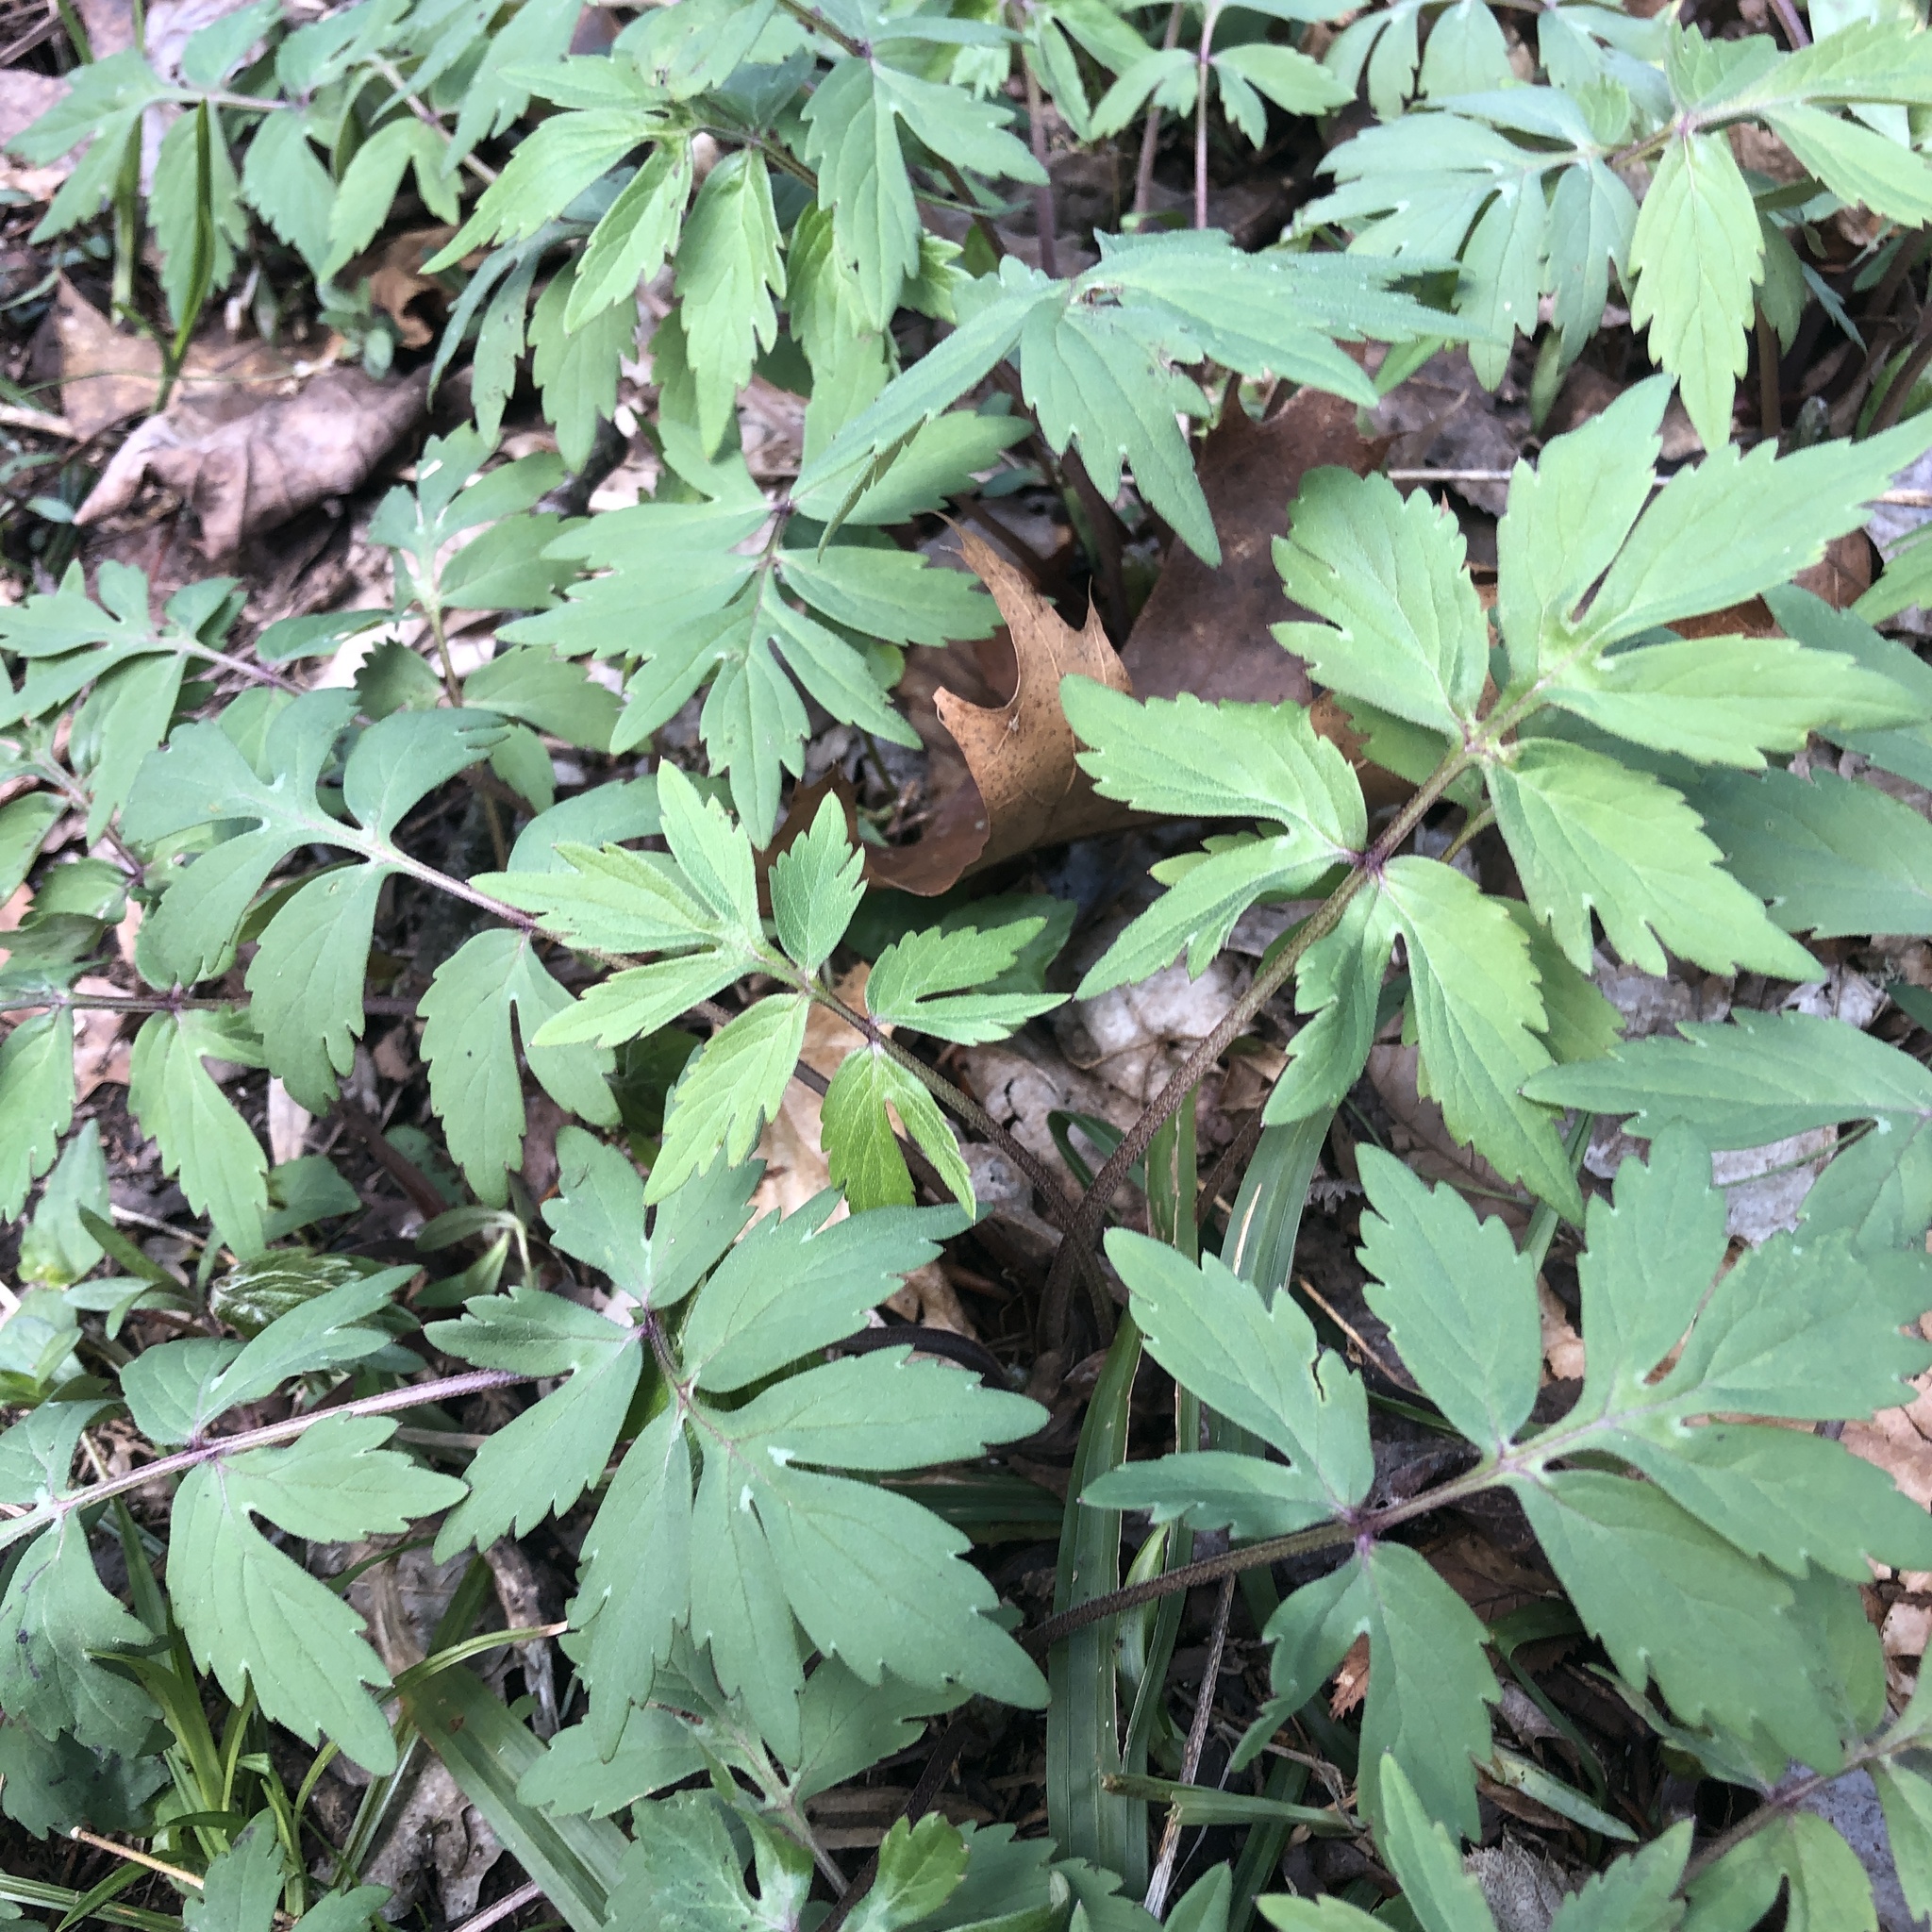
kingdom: Plantae
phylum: Tracheophyta
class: Magnoliopsida
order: Boraginales
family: Hydrophyllaceae
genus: Hydrophyllum
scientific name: Hydrophyllum virginianum
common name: Virginia waterleaf
